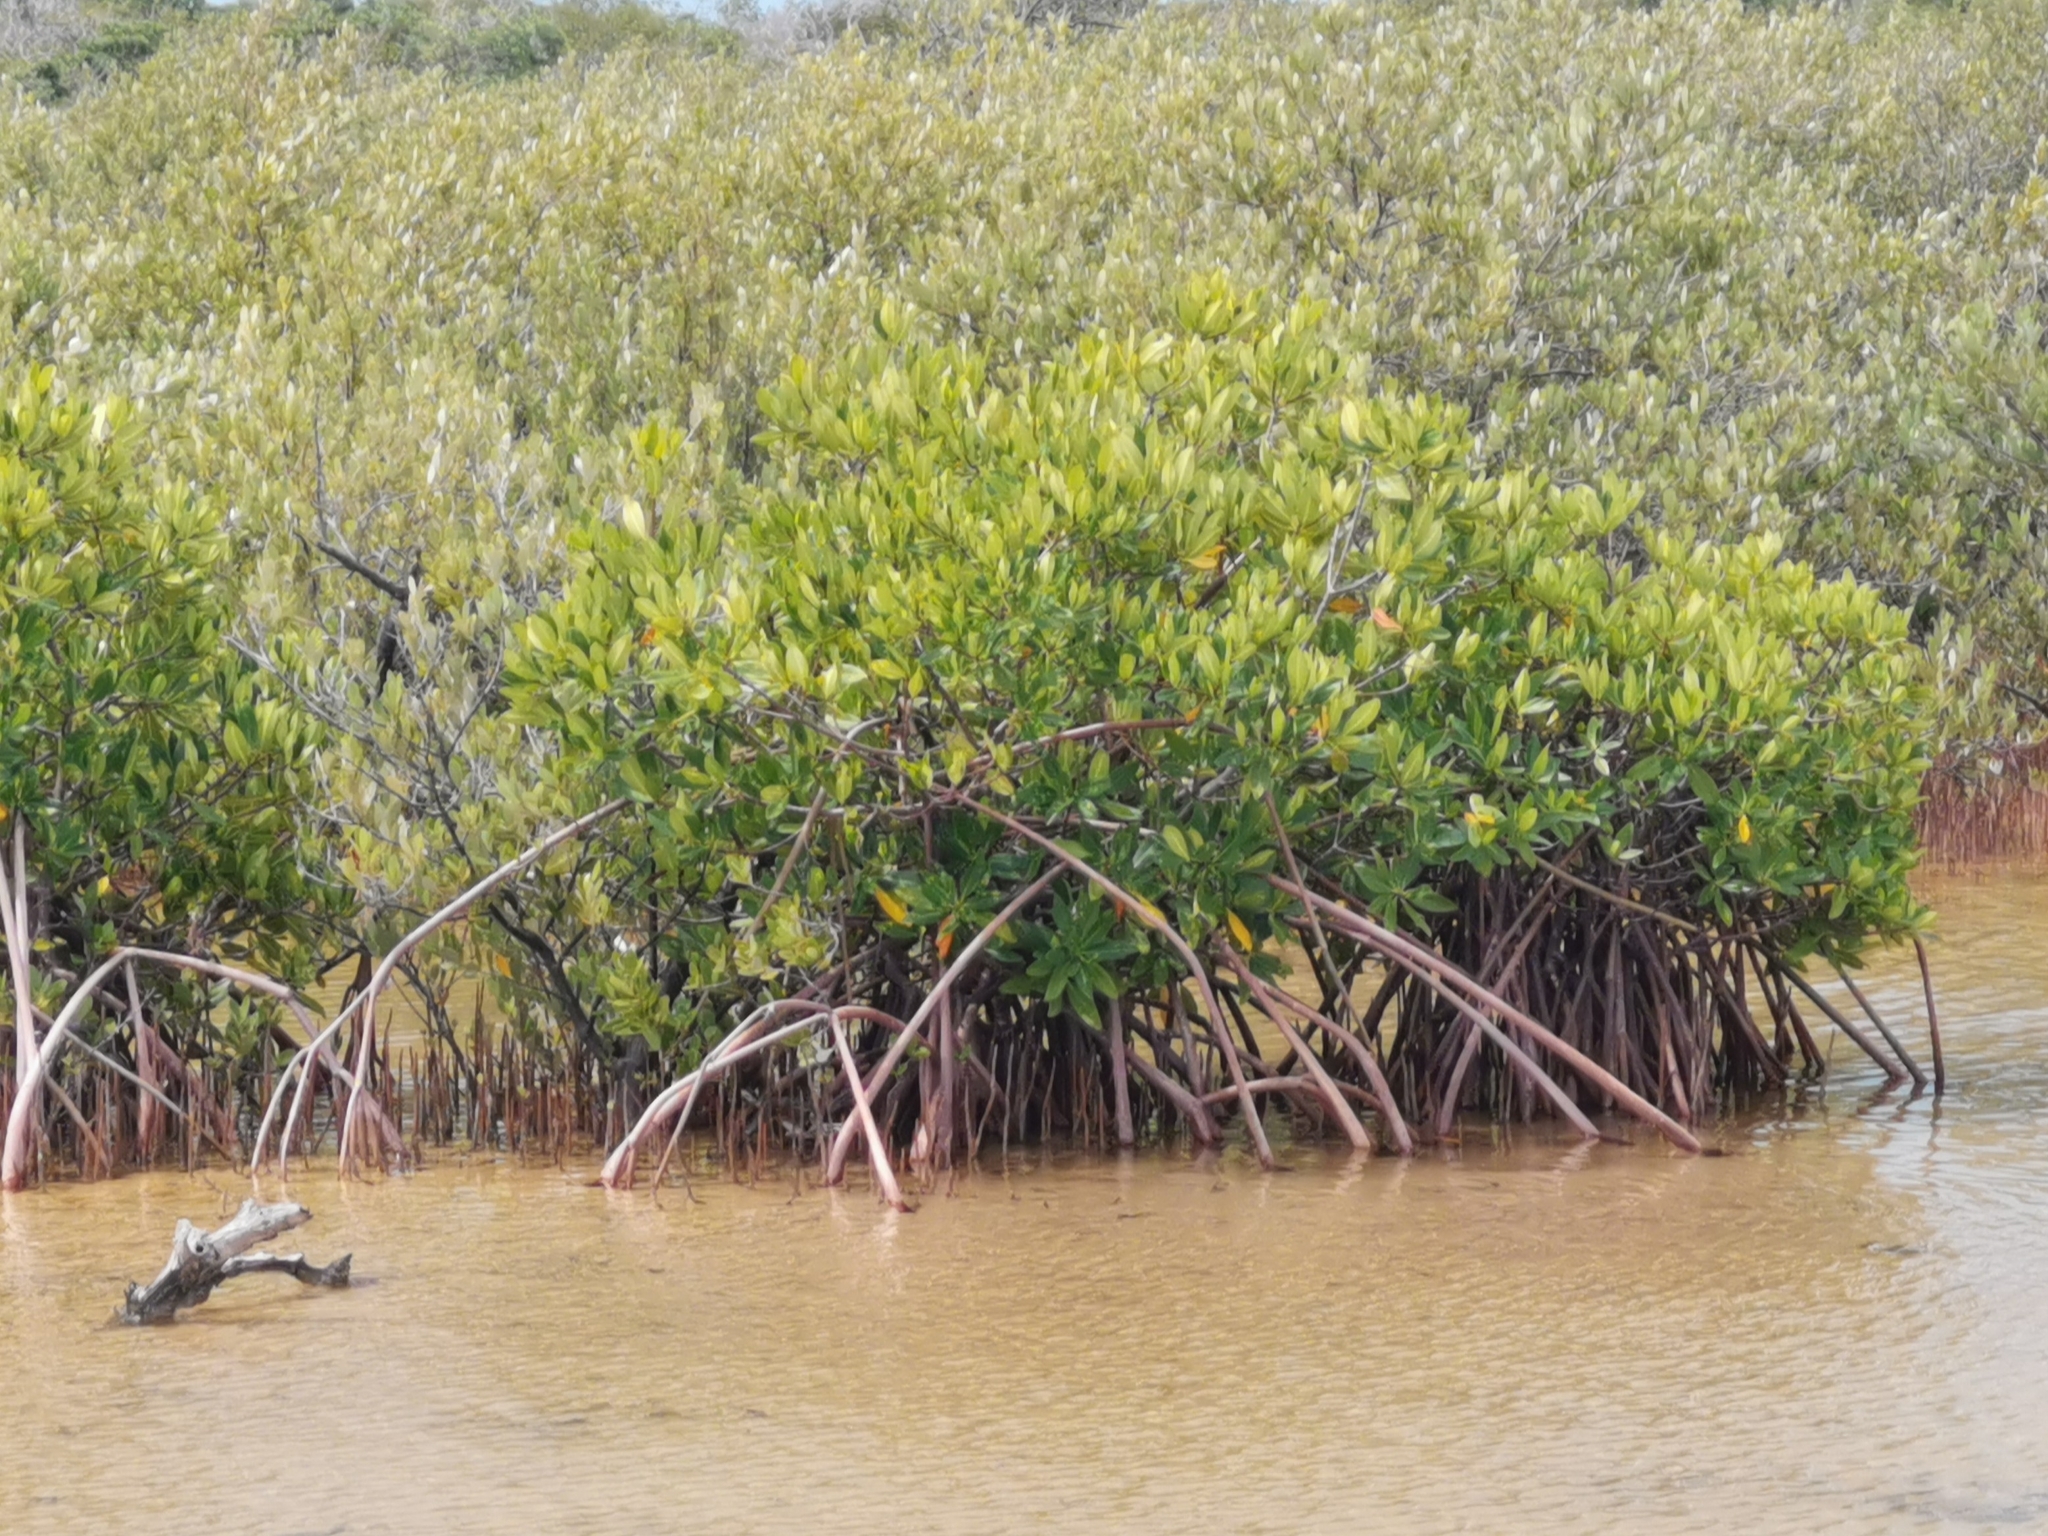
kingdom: Plantae
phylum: Tracheophyta
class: Magnoliopsida
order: Malpighiales
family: Rhizophoraceae
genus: Rhizophora
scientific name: Rhizophora mangle
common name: Red mangrove
